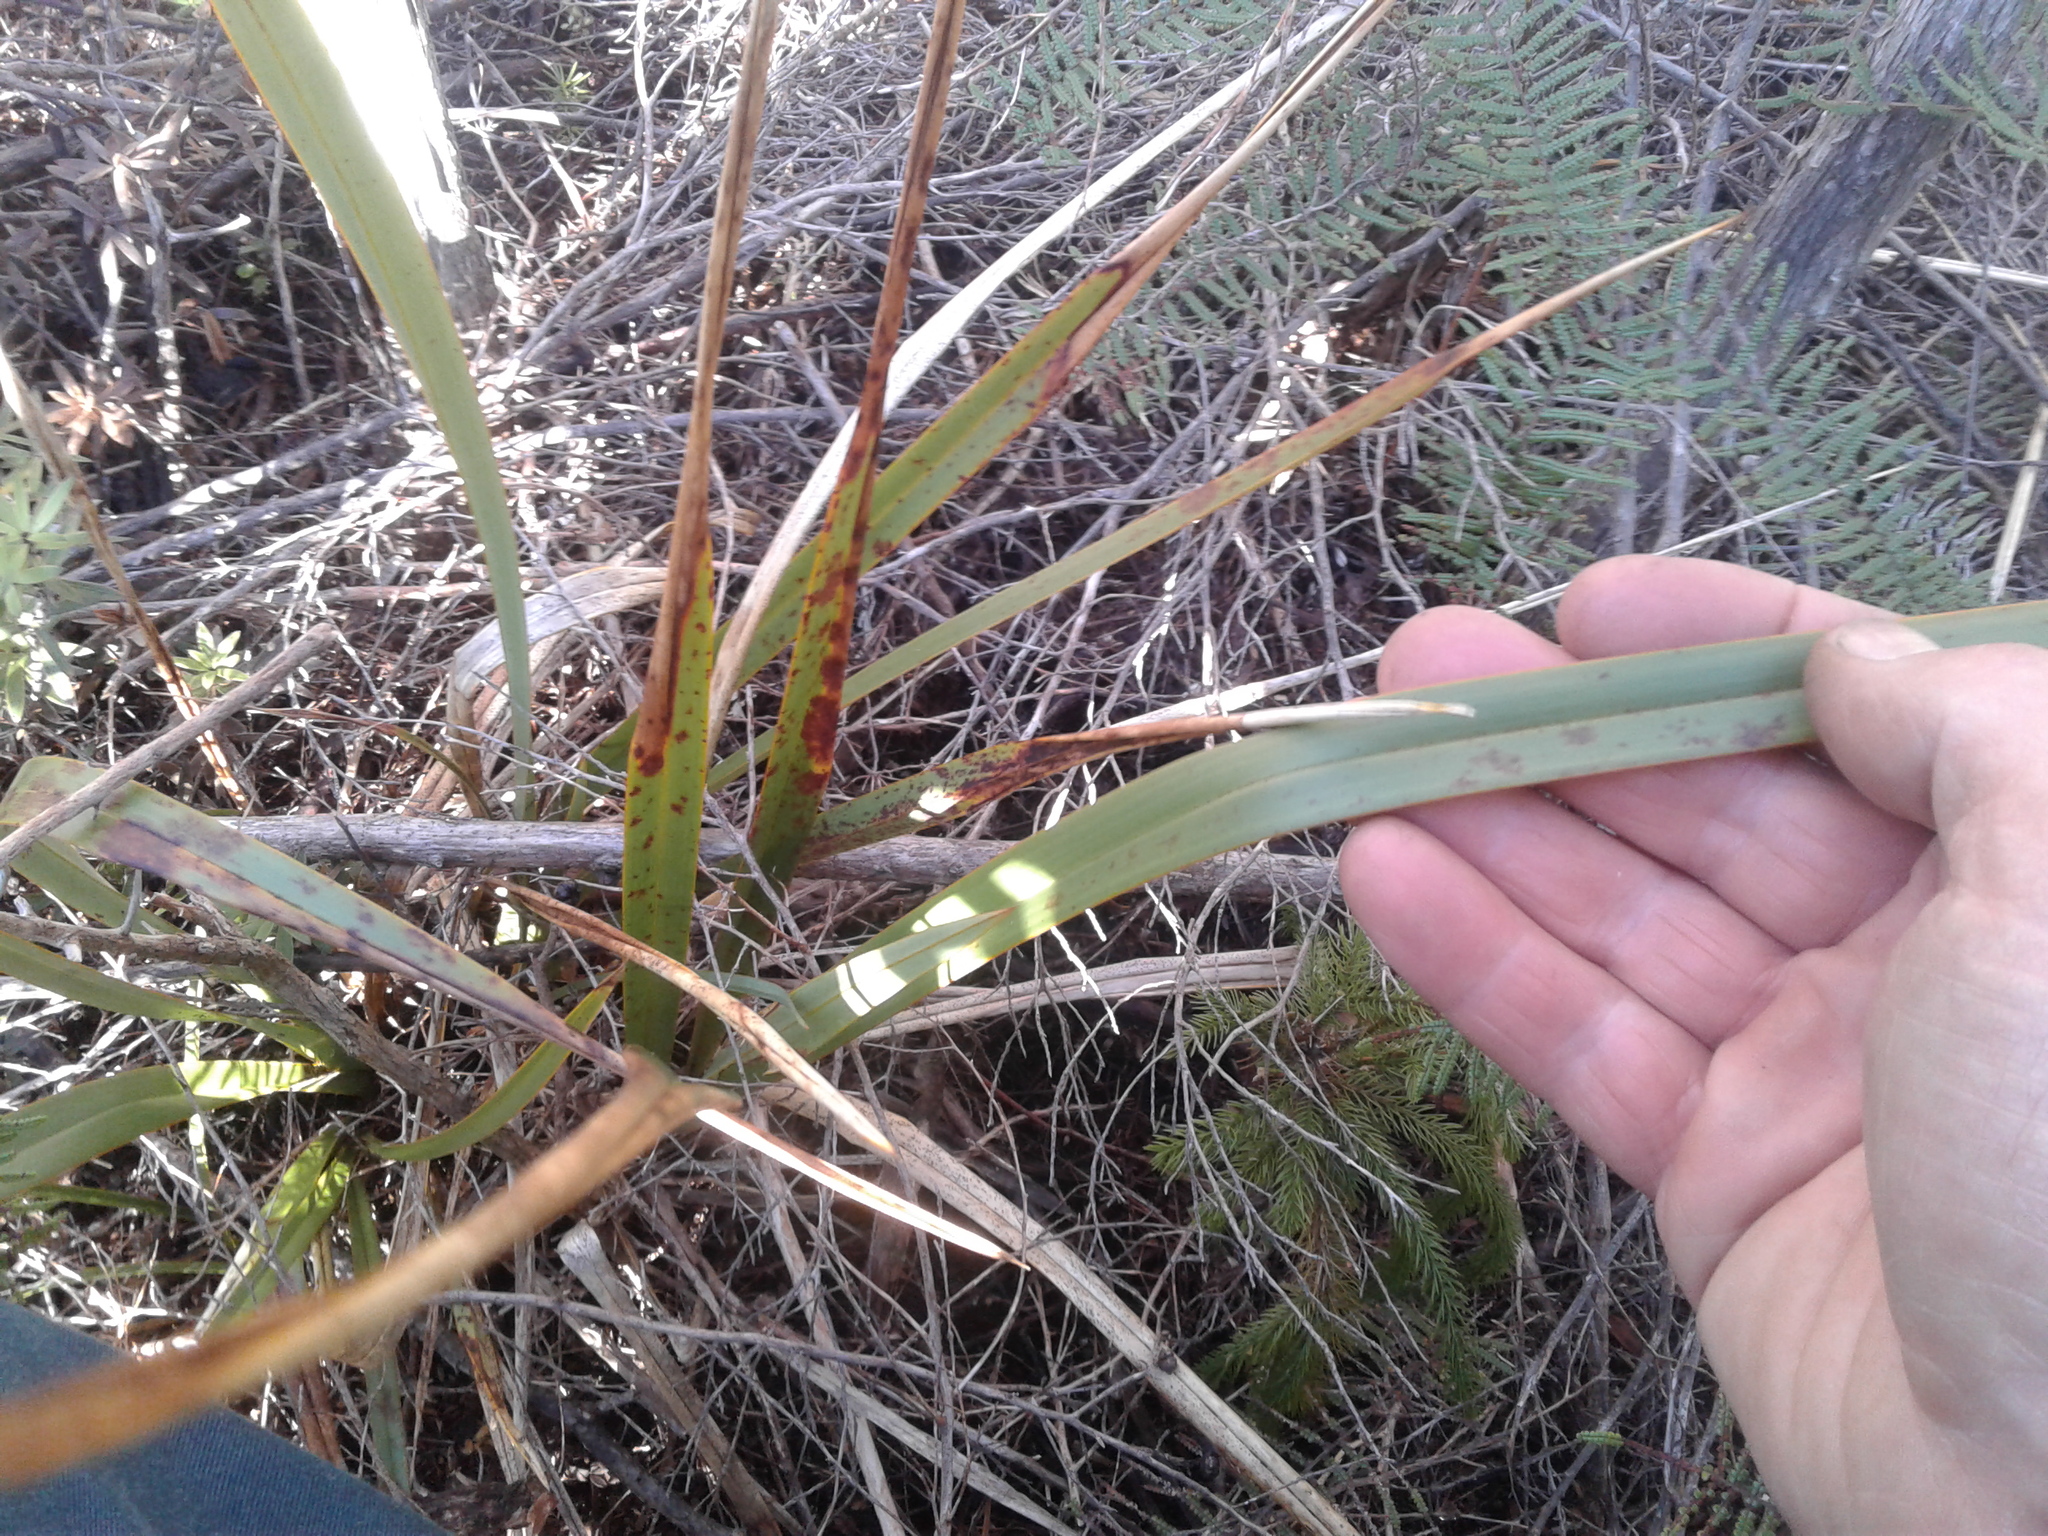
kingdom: Plantae
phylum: Tracheophyta
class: Liliopsida
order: Asparagales
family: Asphodelaceae
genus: Phormium
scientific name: Phormium colensoi
